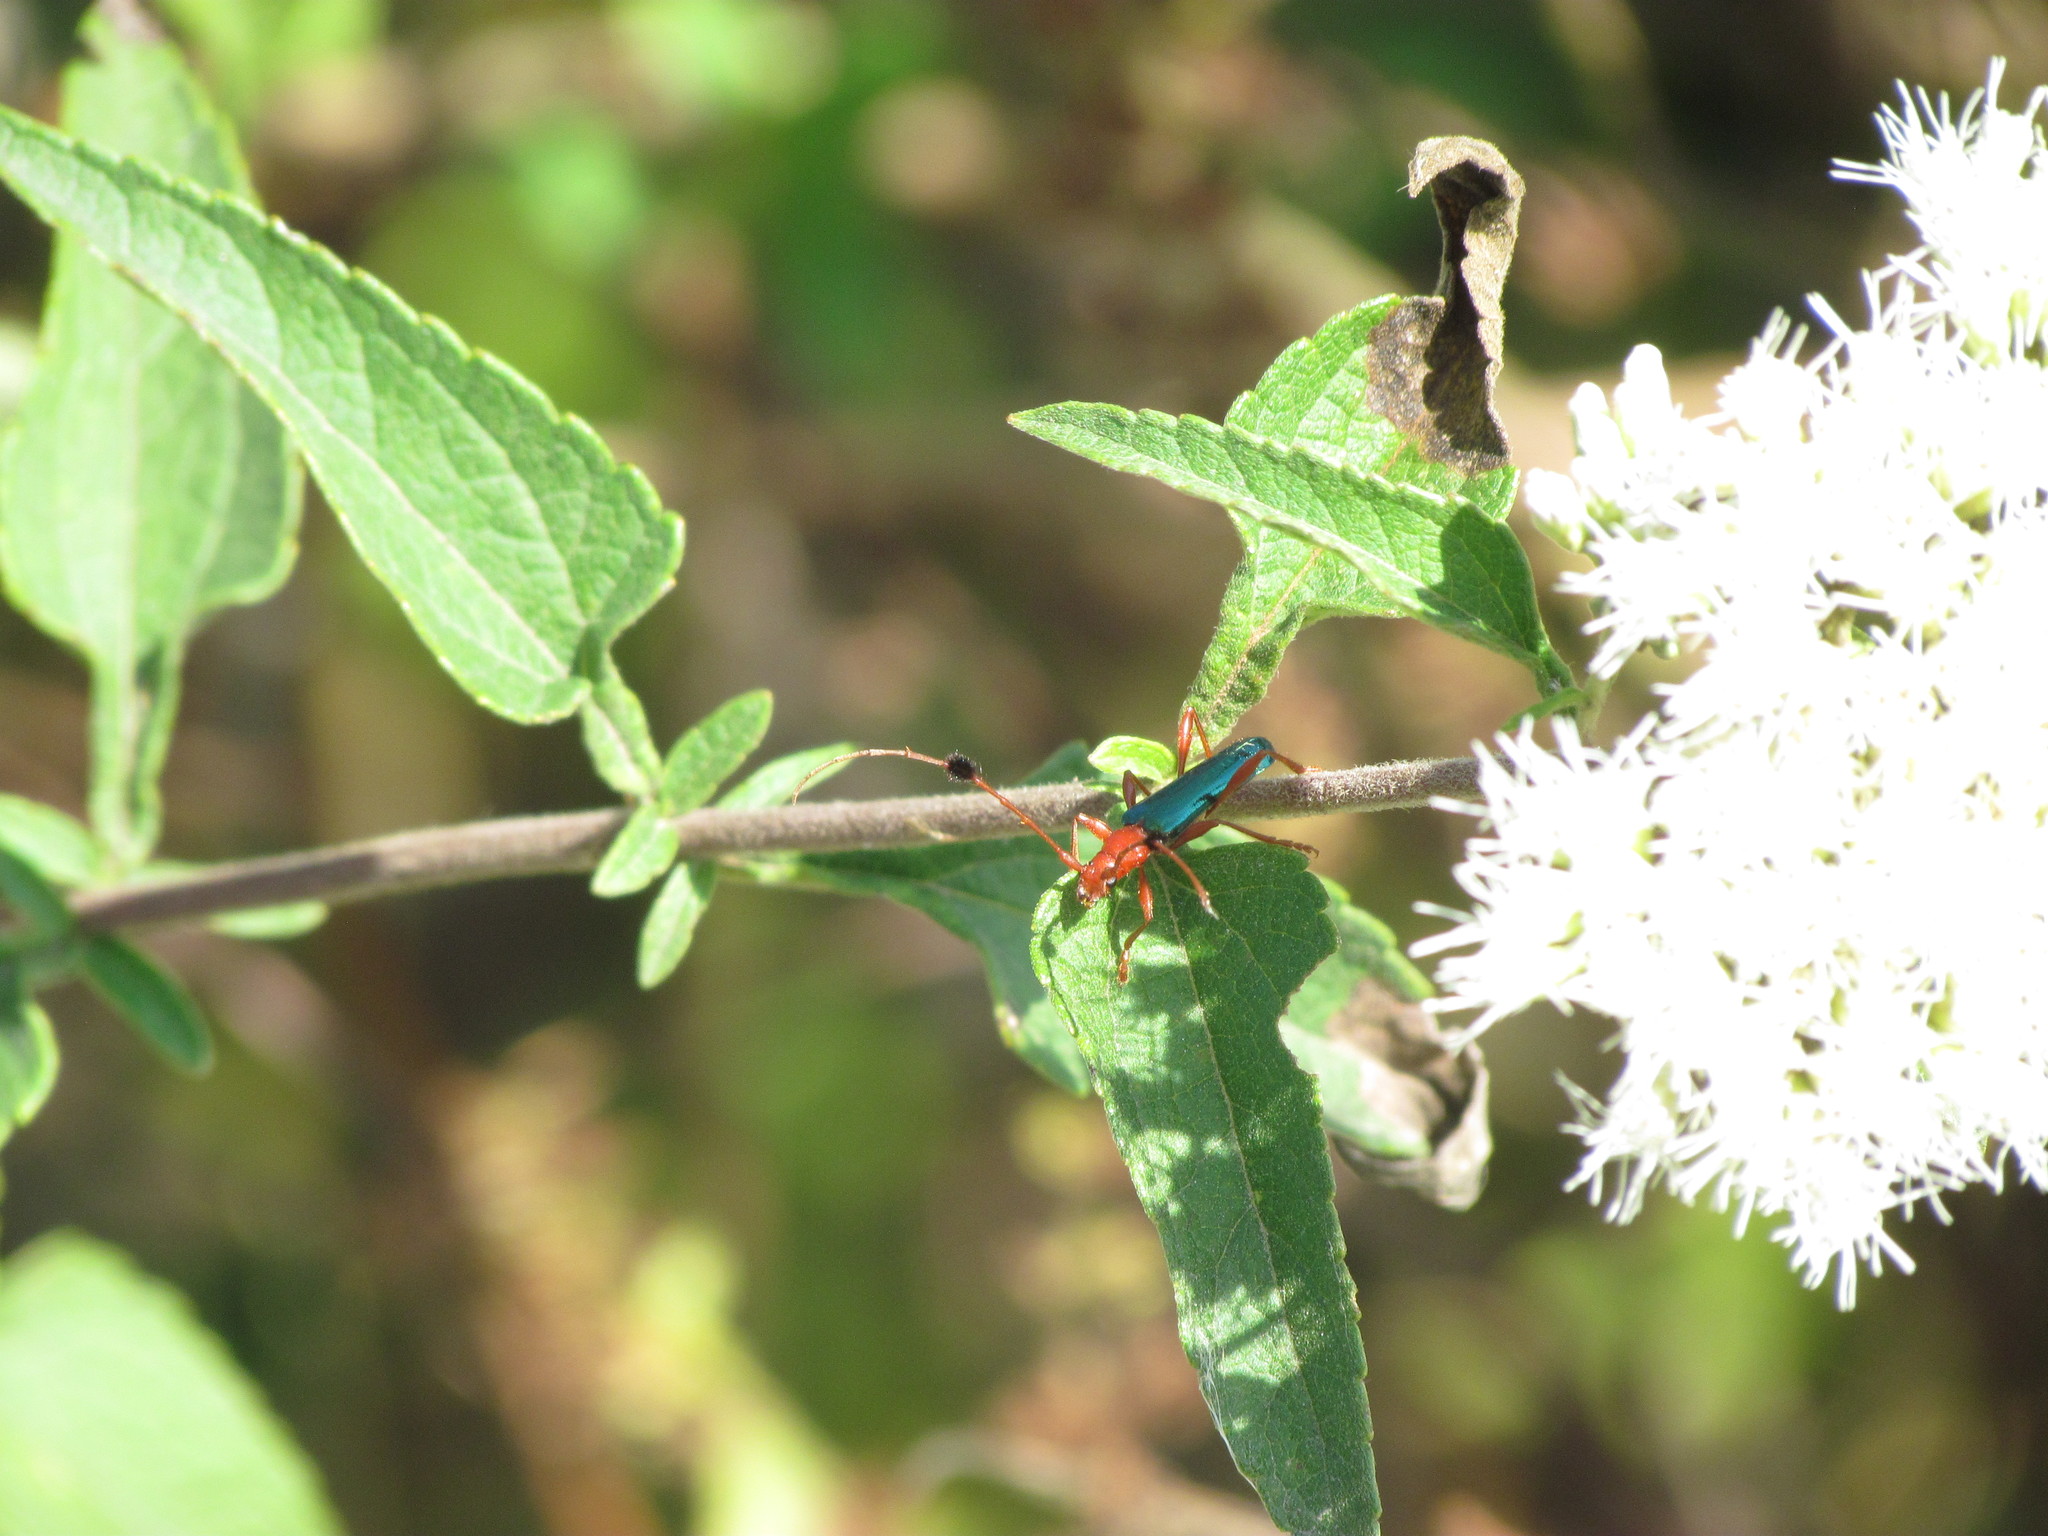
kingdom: Animalia
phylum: Arthropoda
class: Insecta
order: Coleoptera
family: Cerambycidae
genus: Paromoeocerus
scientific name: Paromoeocerus barbicornis
